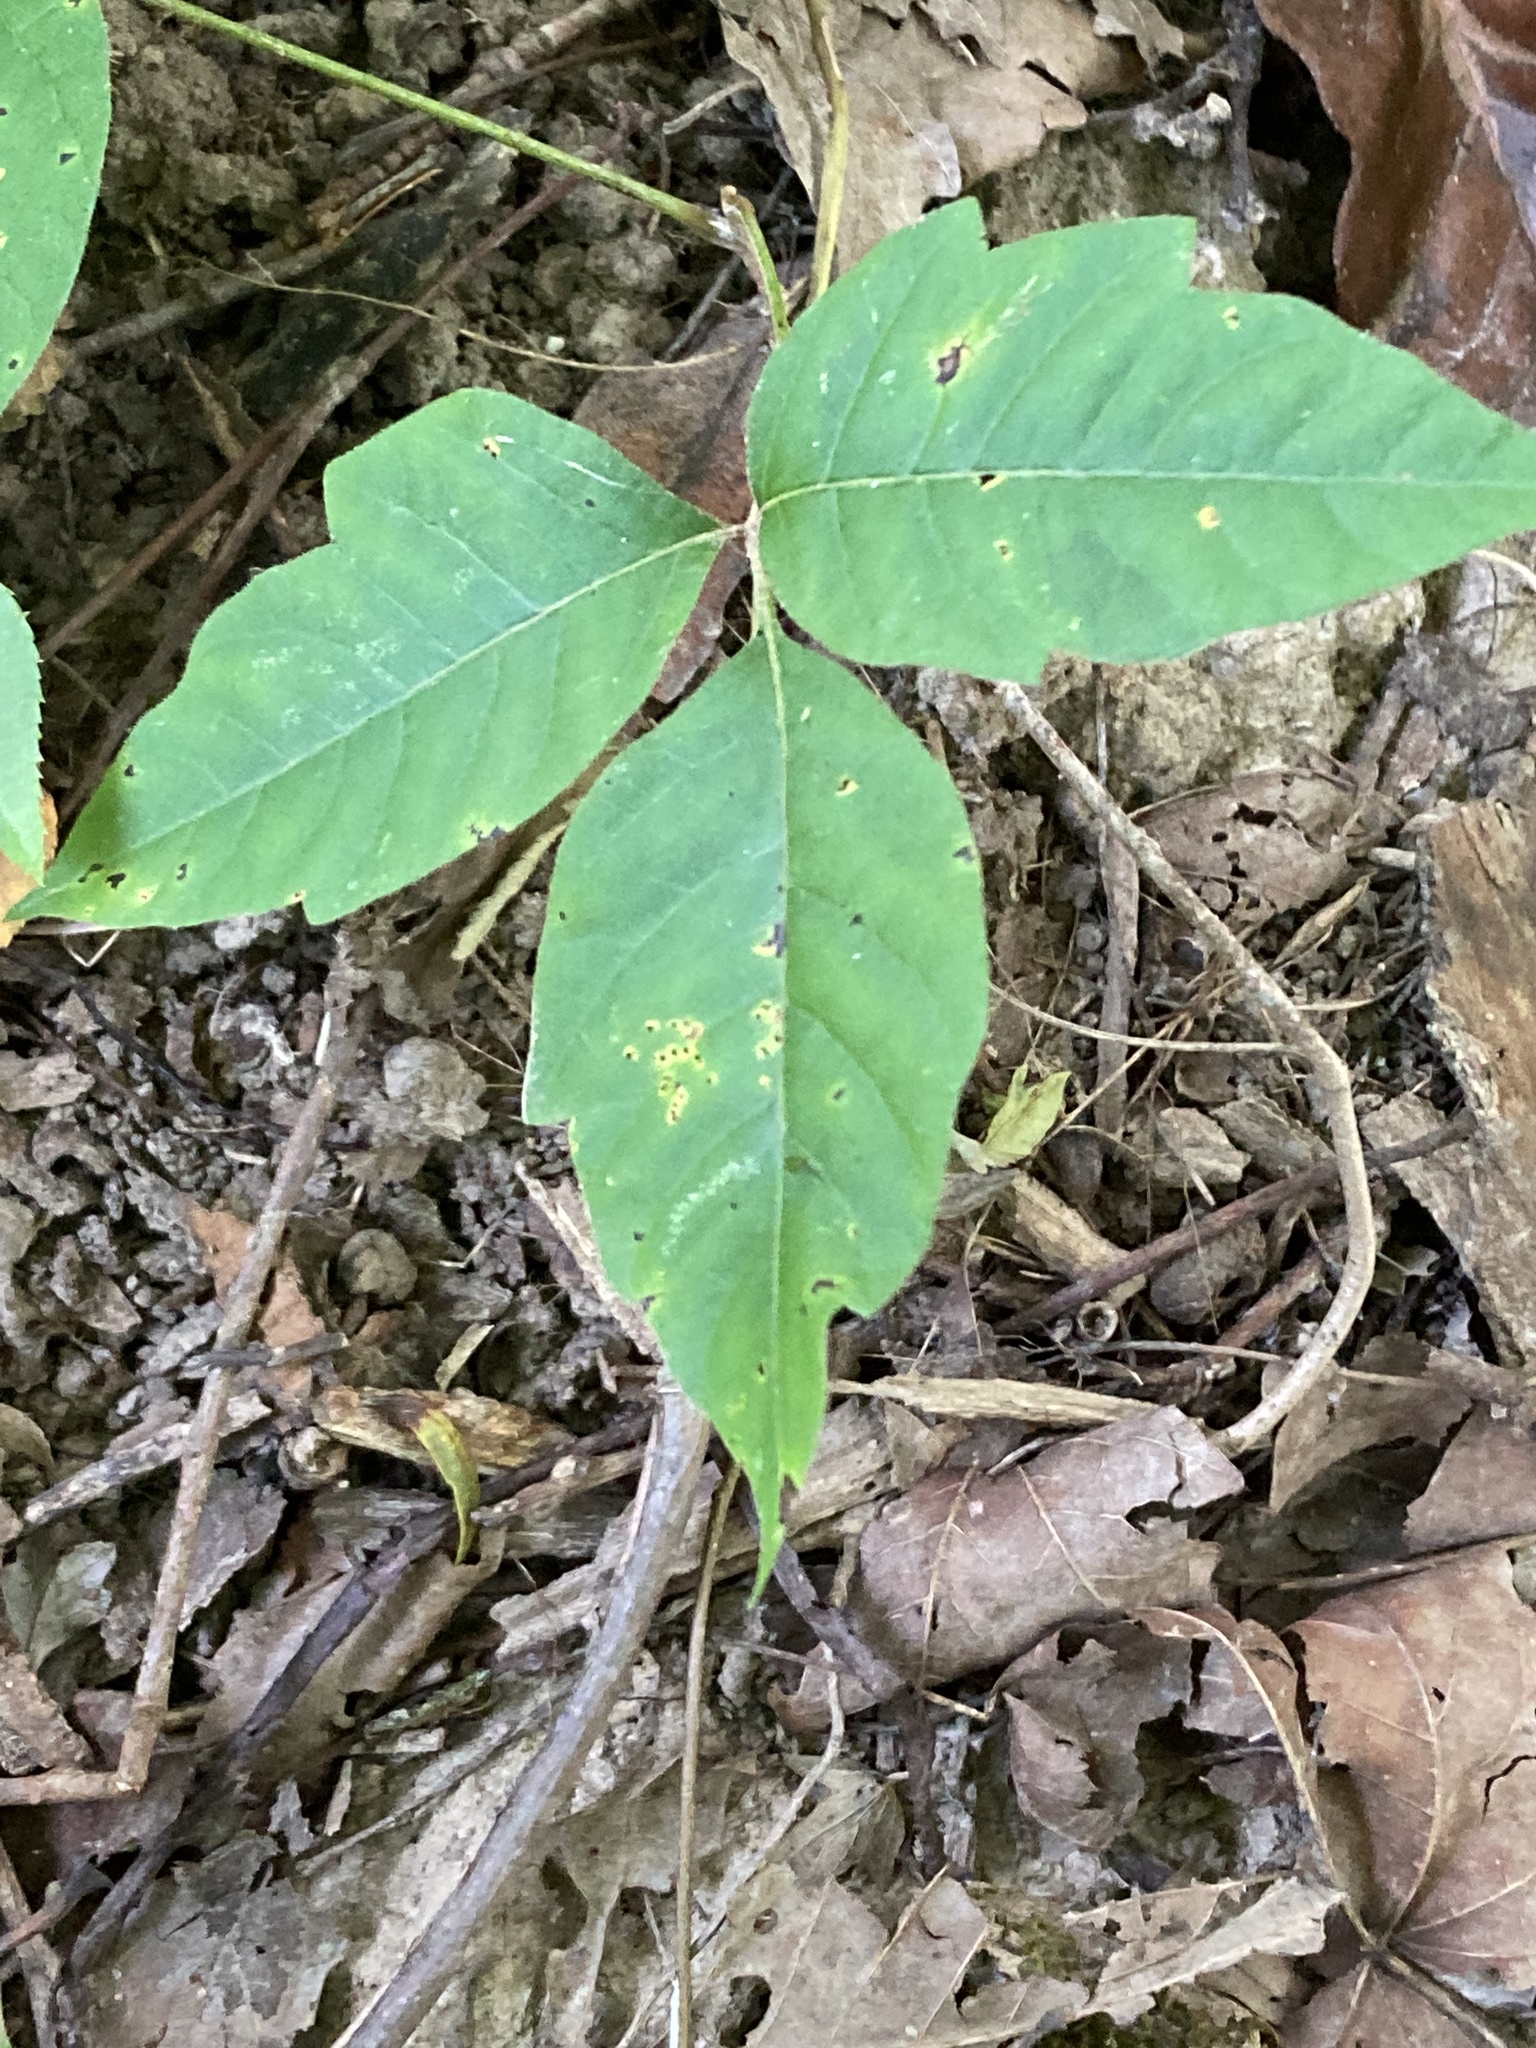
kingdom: Plantae
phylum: Tracheophyta
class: Magnoliopsida
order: Sapindales
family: Anacardiaceae
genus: Toxicodendron
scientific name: Toxicodendron radicans
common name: Poison ivy
